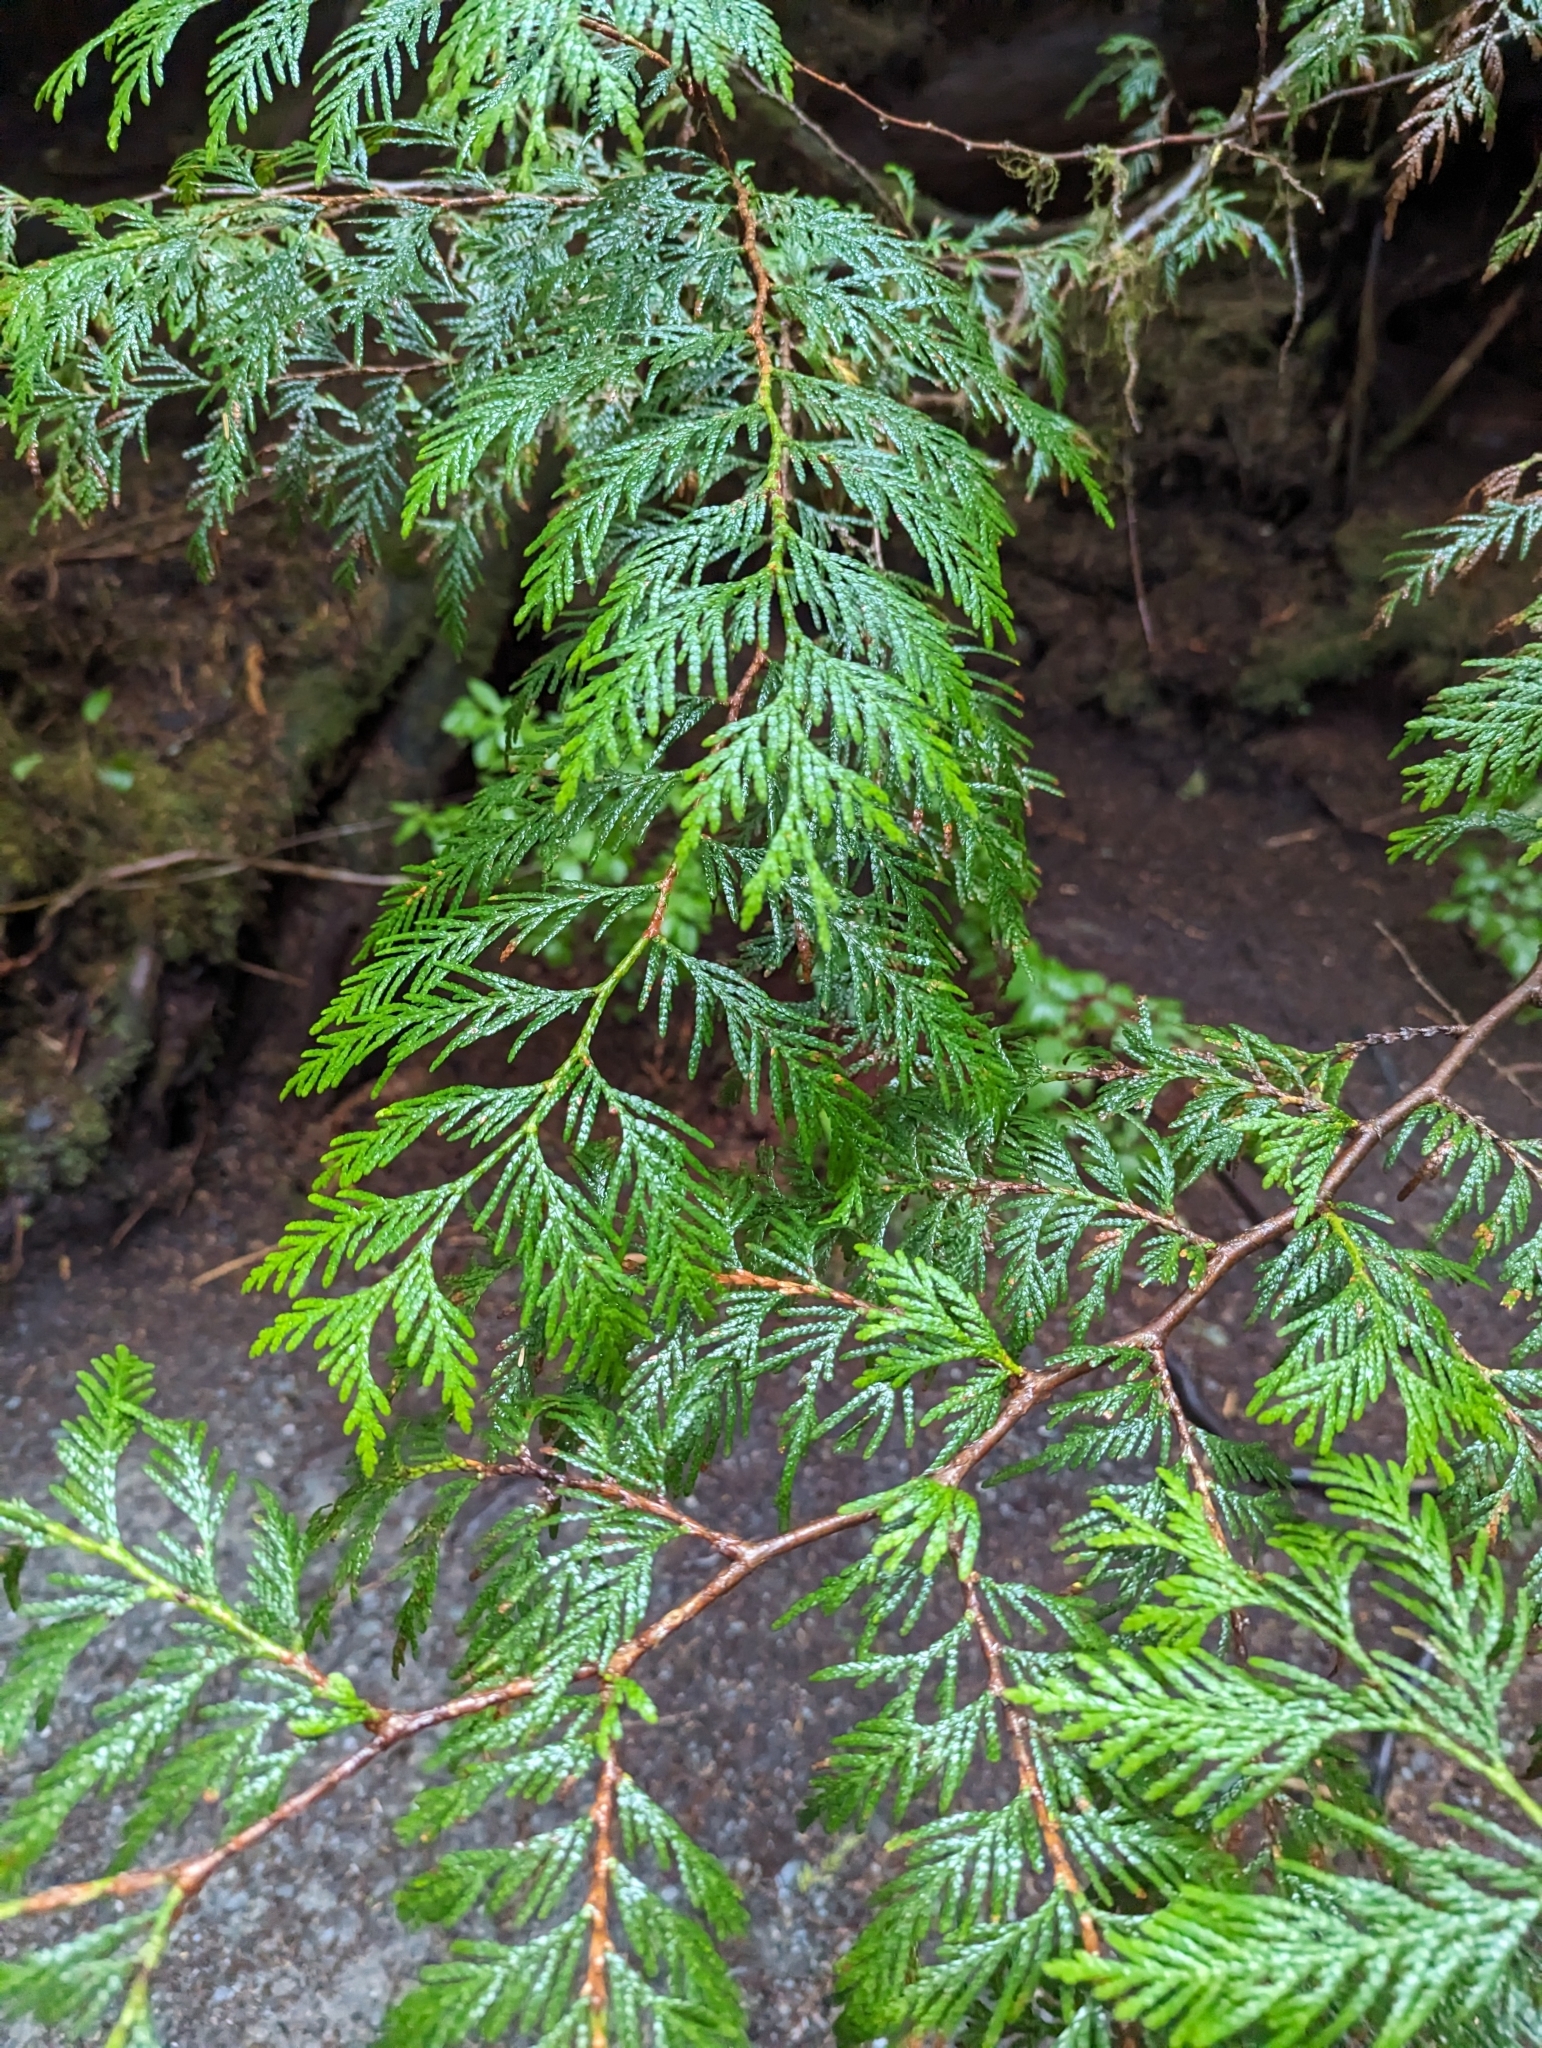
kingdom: Plantae
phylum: Tracheophyta
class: Pinopsida
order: Pinales
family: Cupressaceae
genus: Thuja
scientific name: Thuja plicata
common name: Western red-cedar
